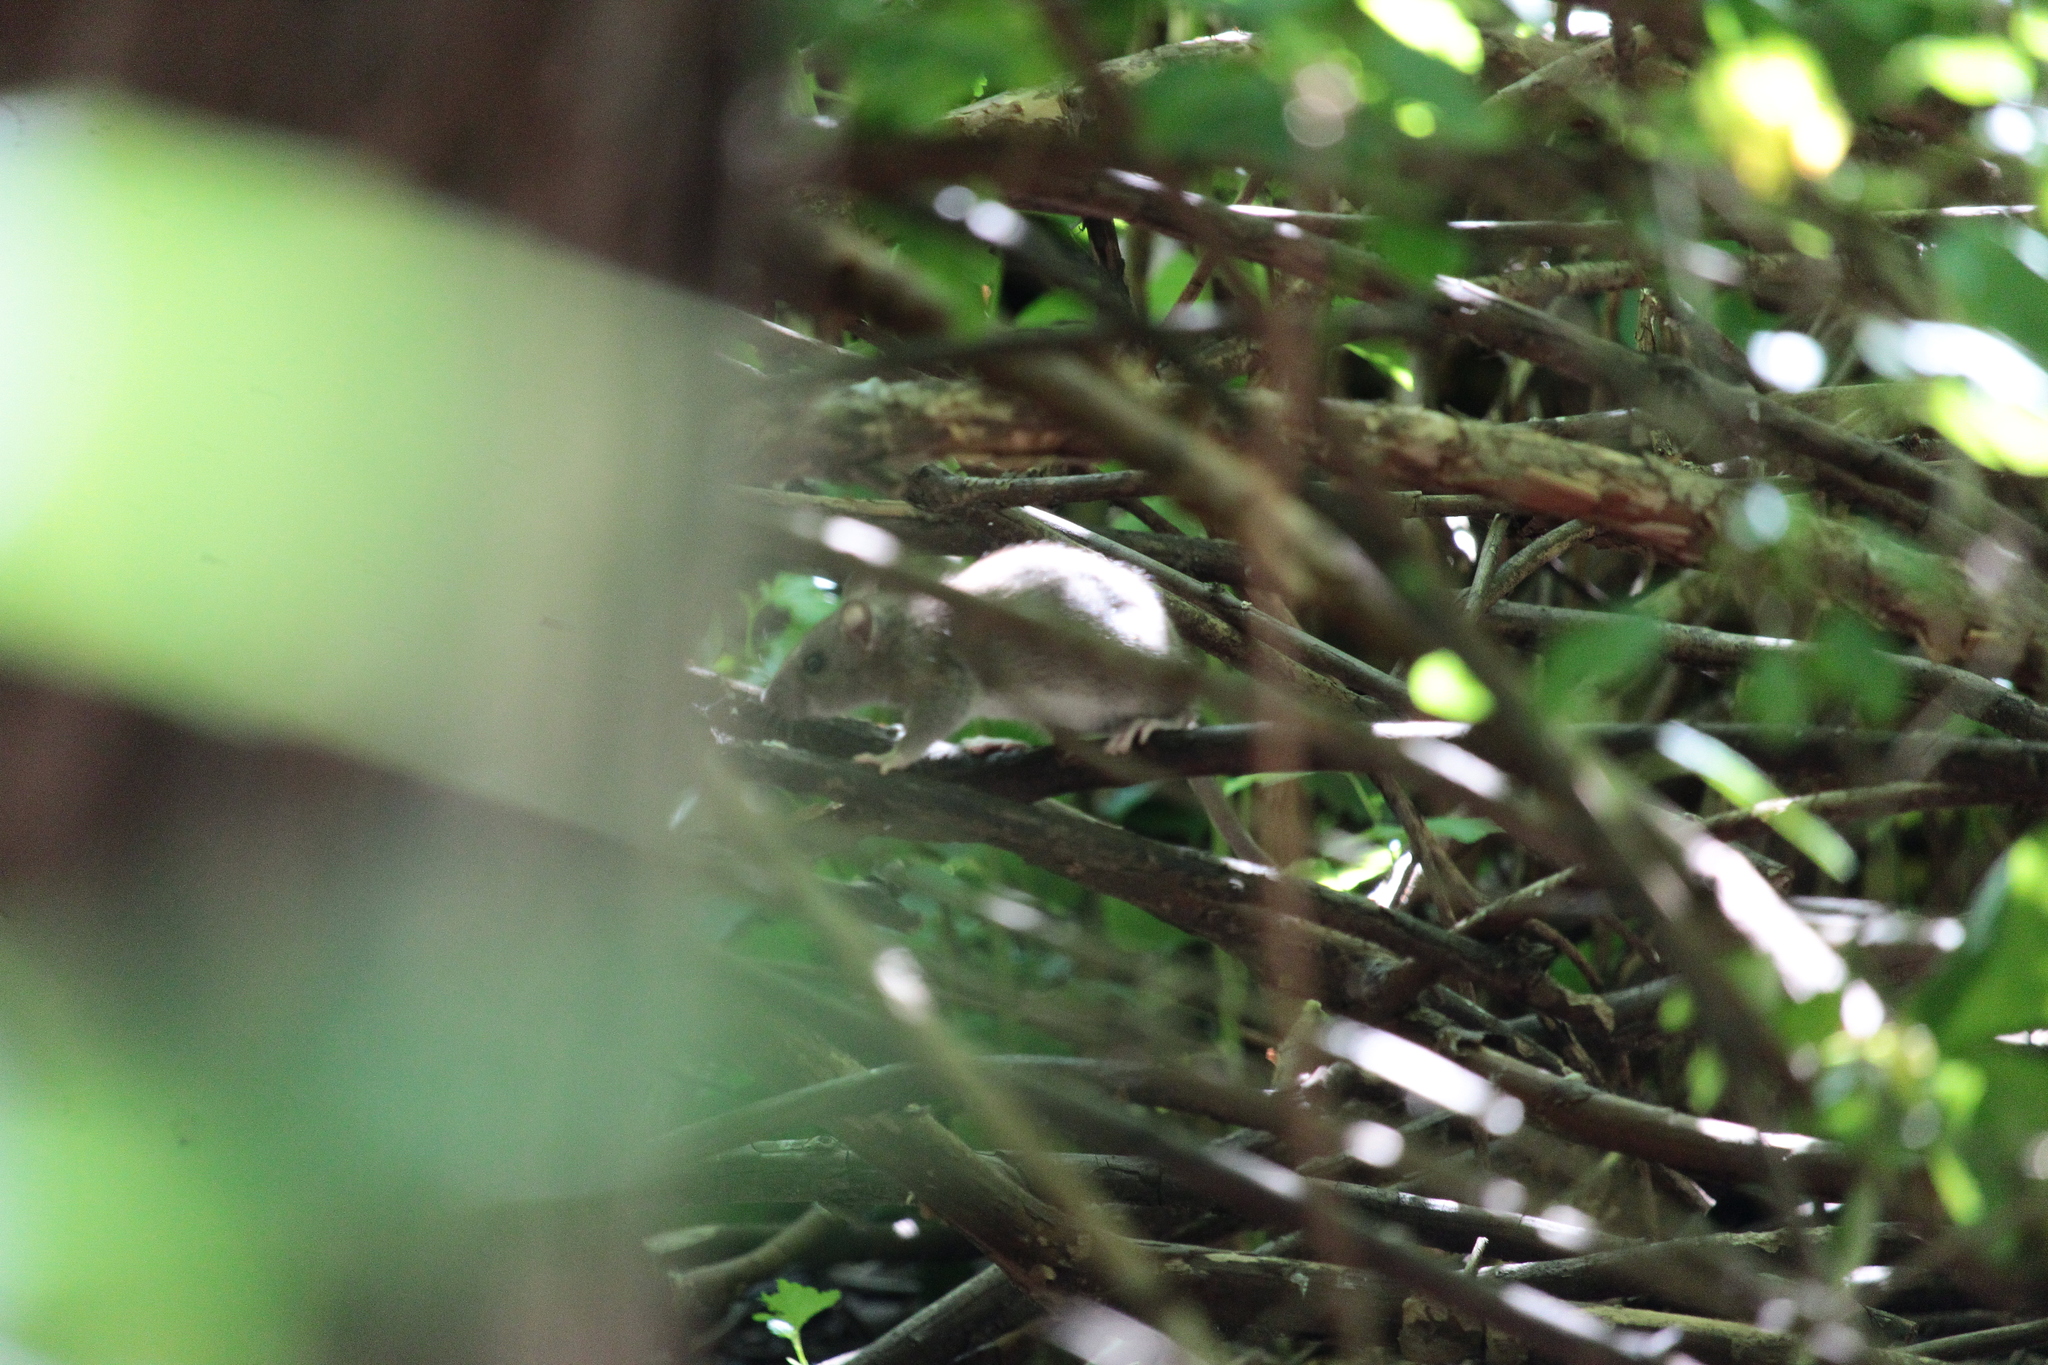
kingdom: Animalia
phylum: Chordata
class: Mammalia
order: Rodentia
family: Muridae
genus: Rattus
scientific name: Rattus norvegicus
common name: Brown rat
